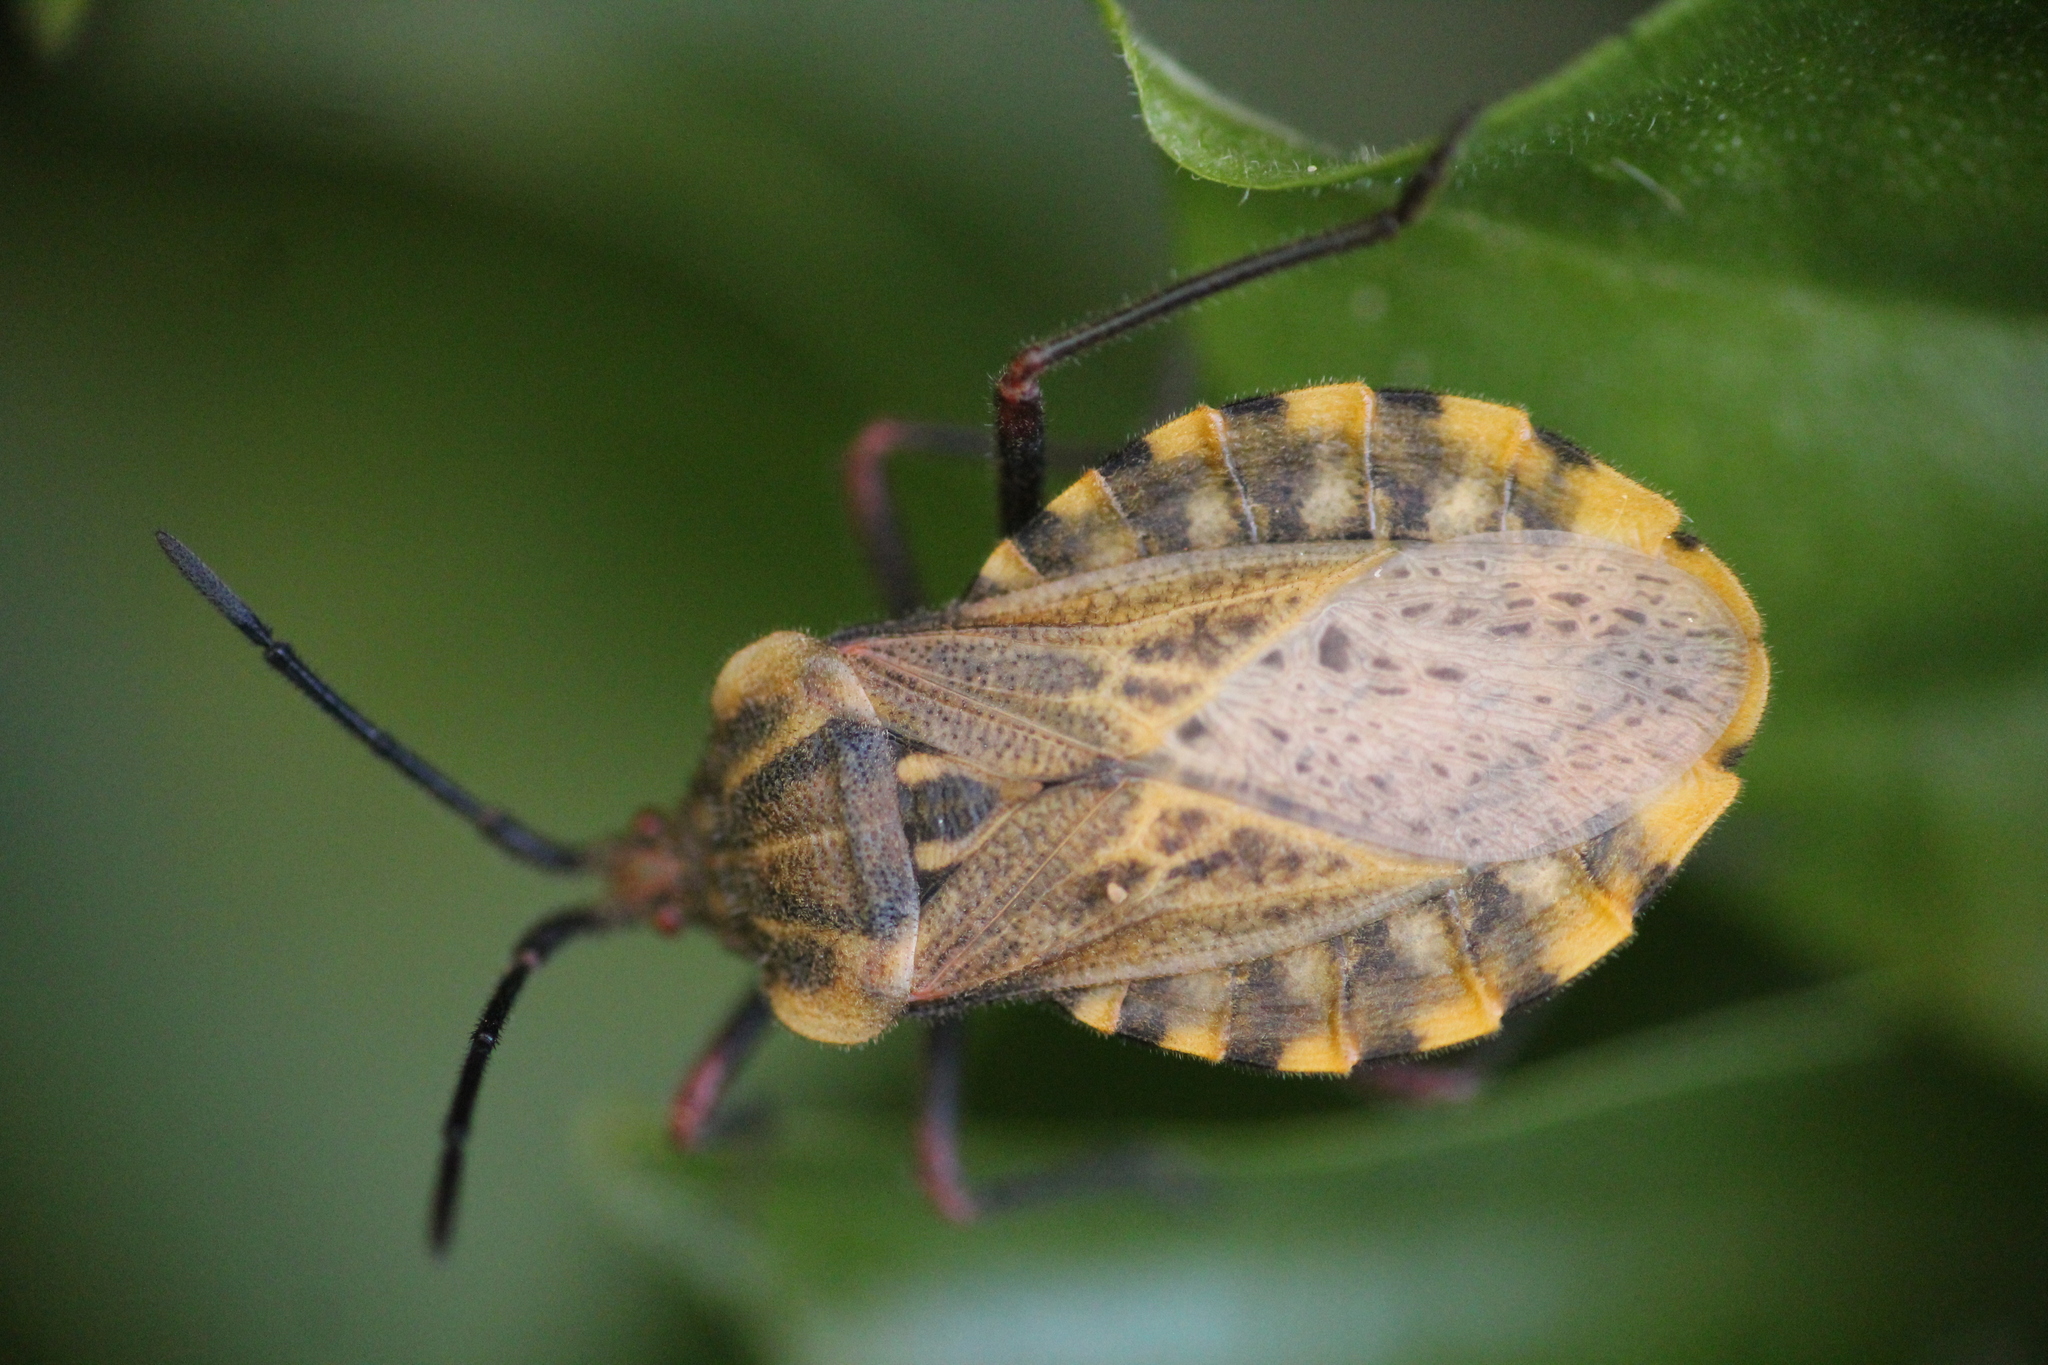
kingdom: Animalia
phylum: Arthropoda
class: Insecta
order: Hemiptera
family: Coreidae
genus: Spartocera
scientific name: Spartocera fusca
